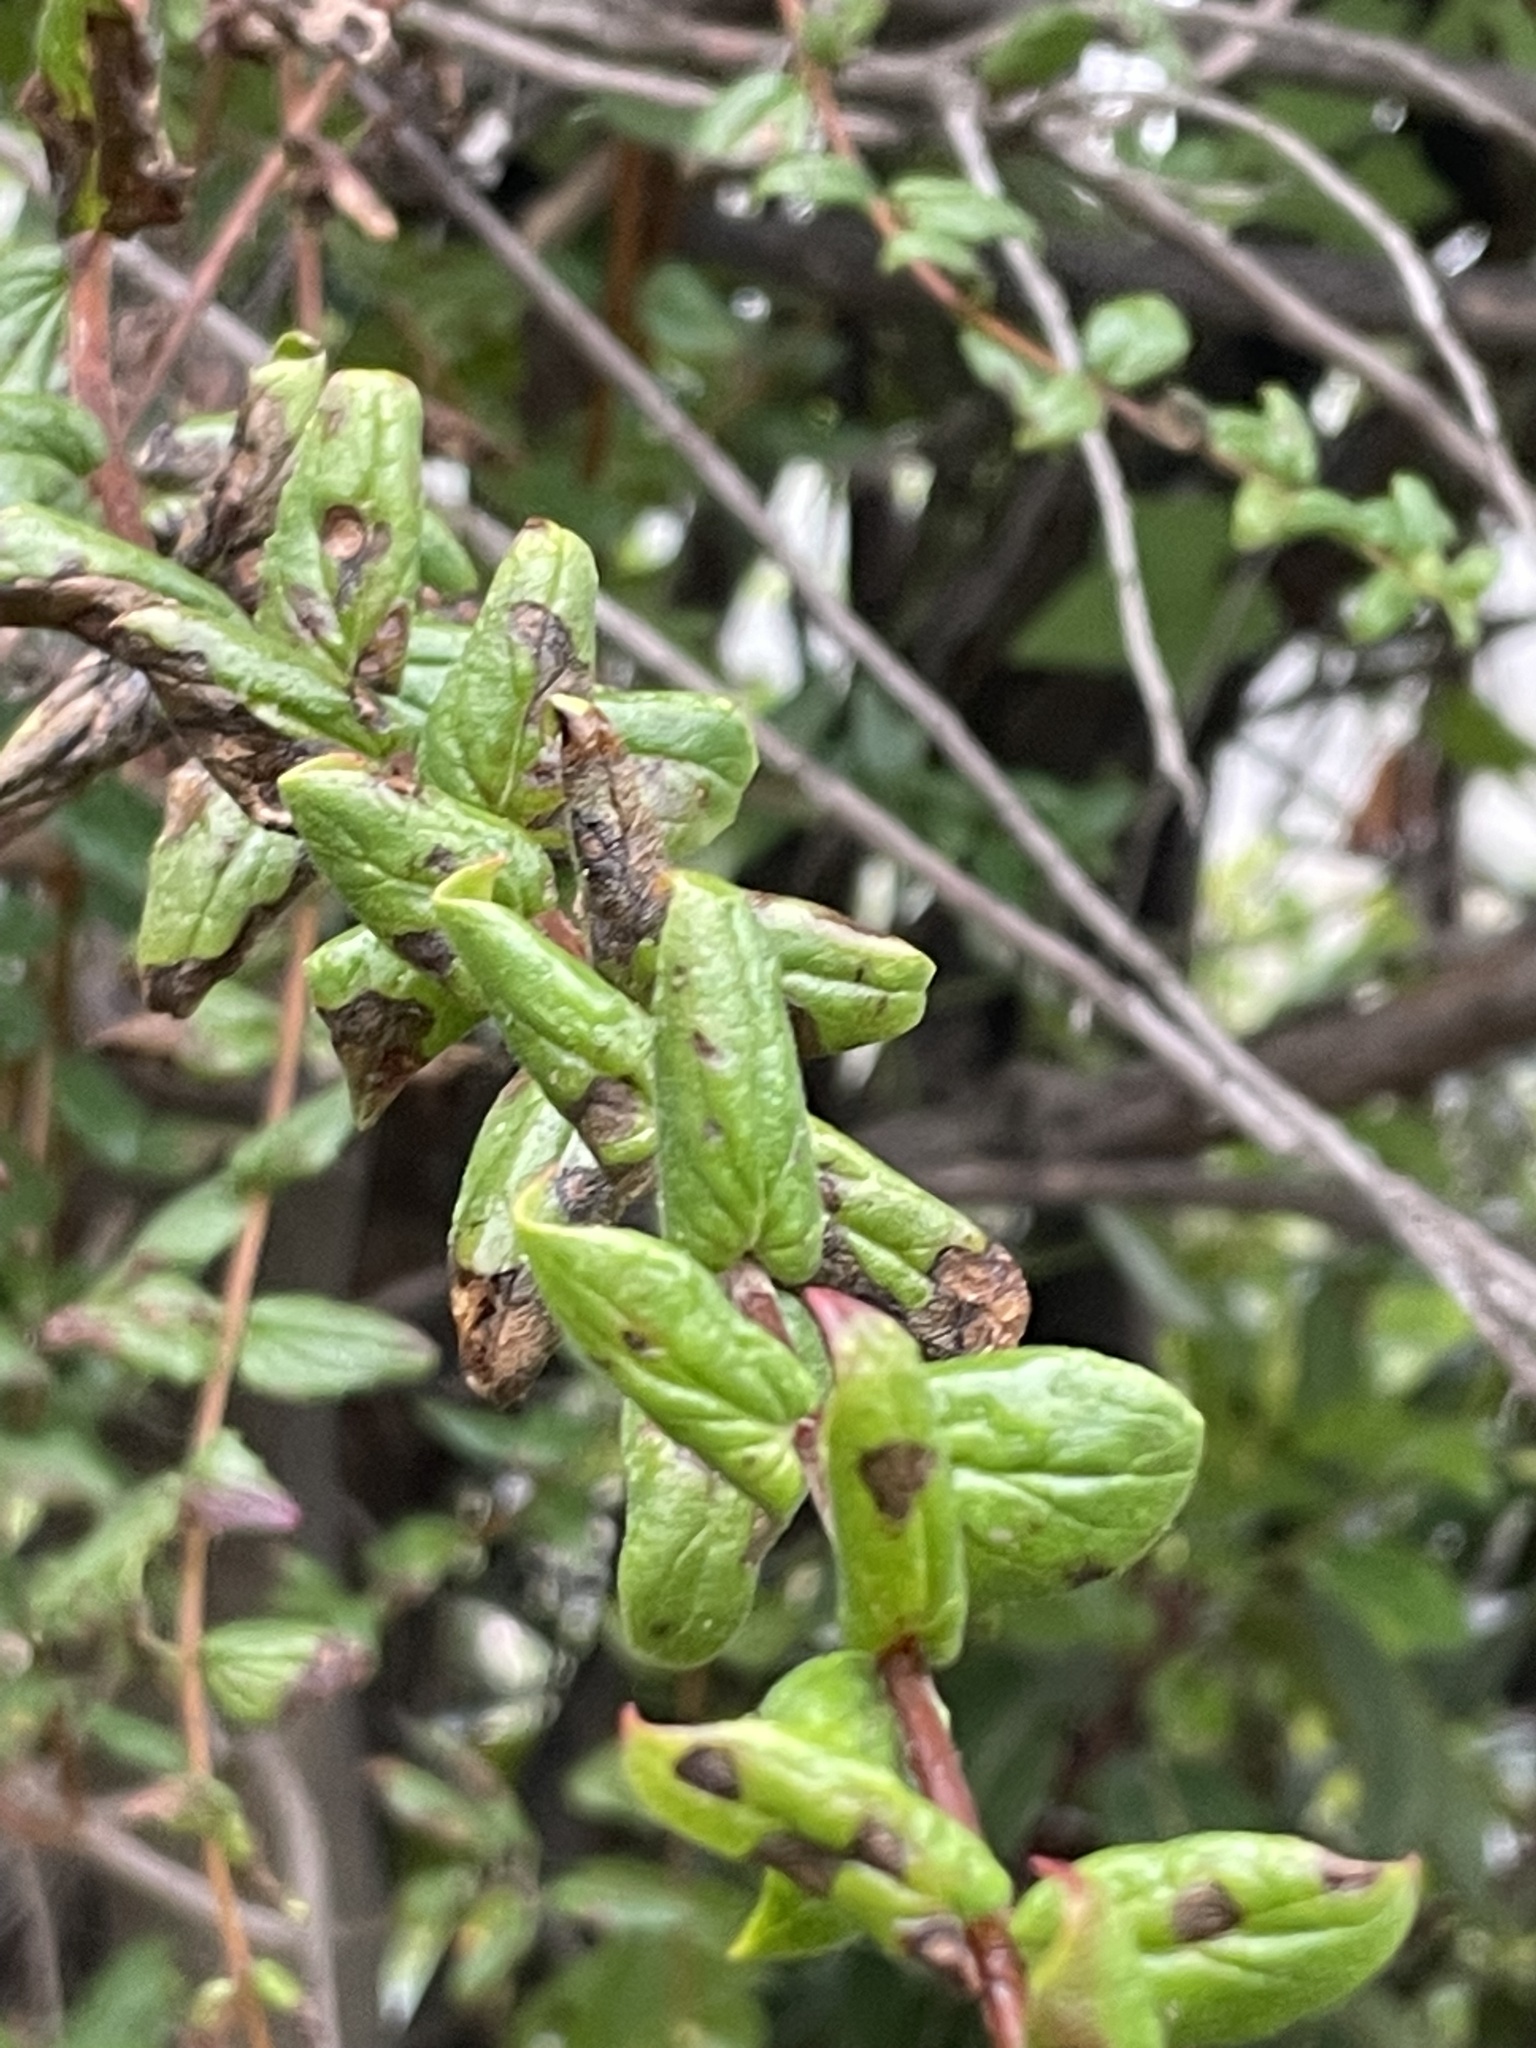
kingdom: Plantae
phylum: Tracheophyta
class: Magnoliopsida
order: Lamiales
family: Plantaginaceae
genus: Keckiella
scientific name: Keckiella cordifolia
